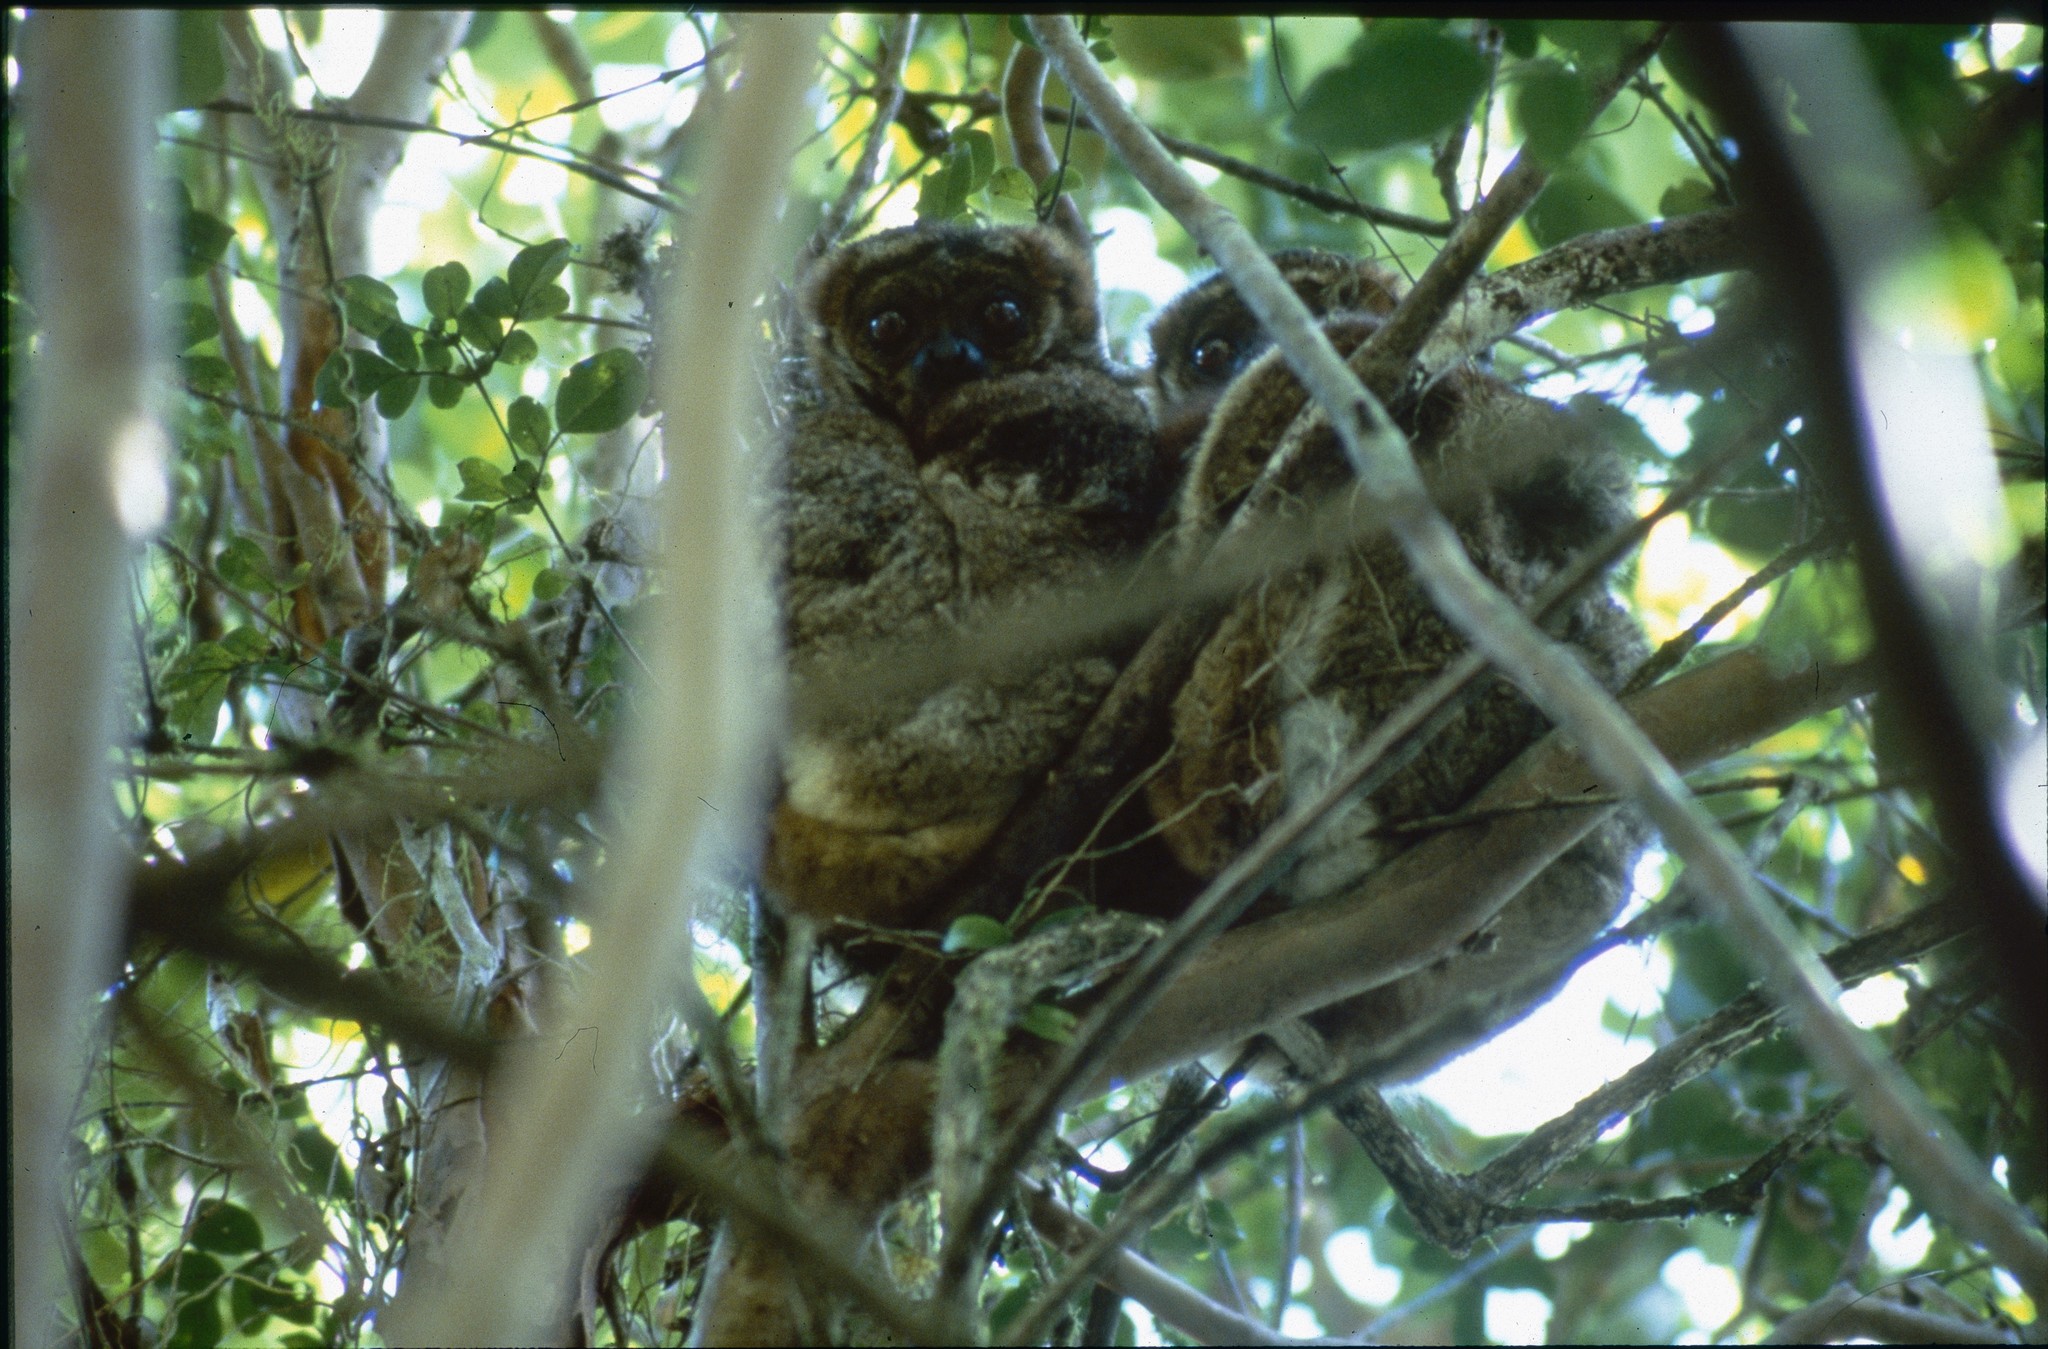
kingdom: Animalia
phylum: Chordata
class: Mammalia
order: Primates
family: Indriidae
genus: Avahi
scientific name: Avahi peyrierasi
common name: Peyrieras's woolly lemur
